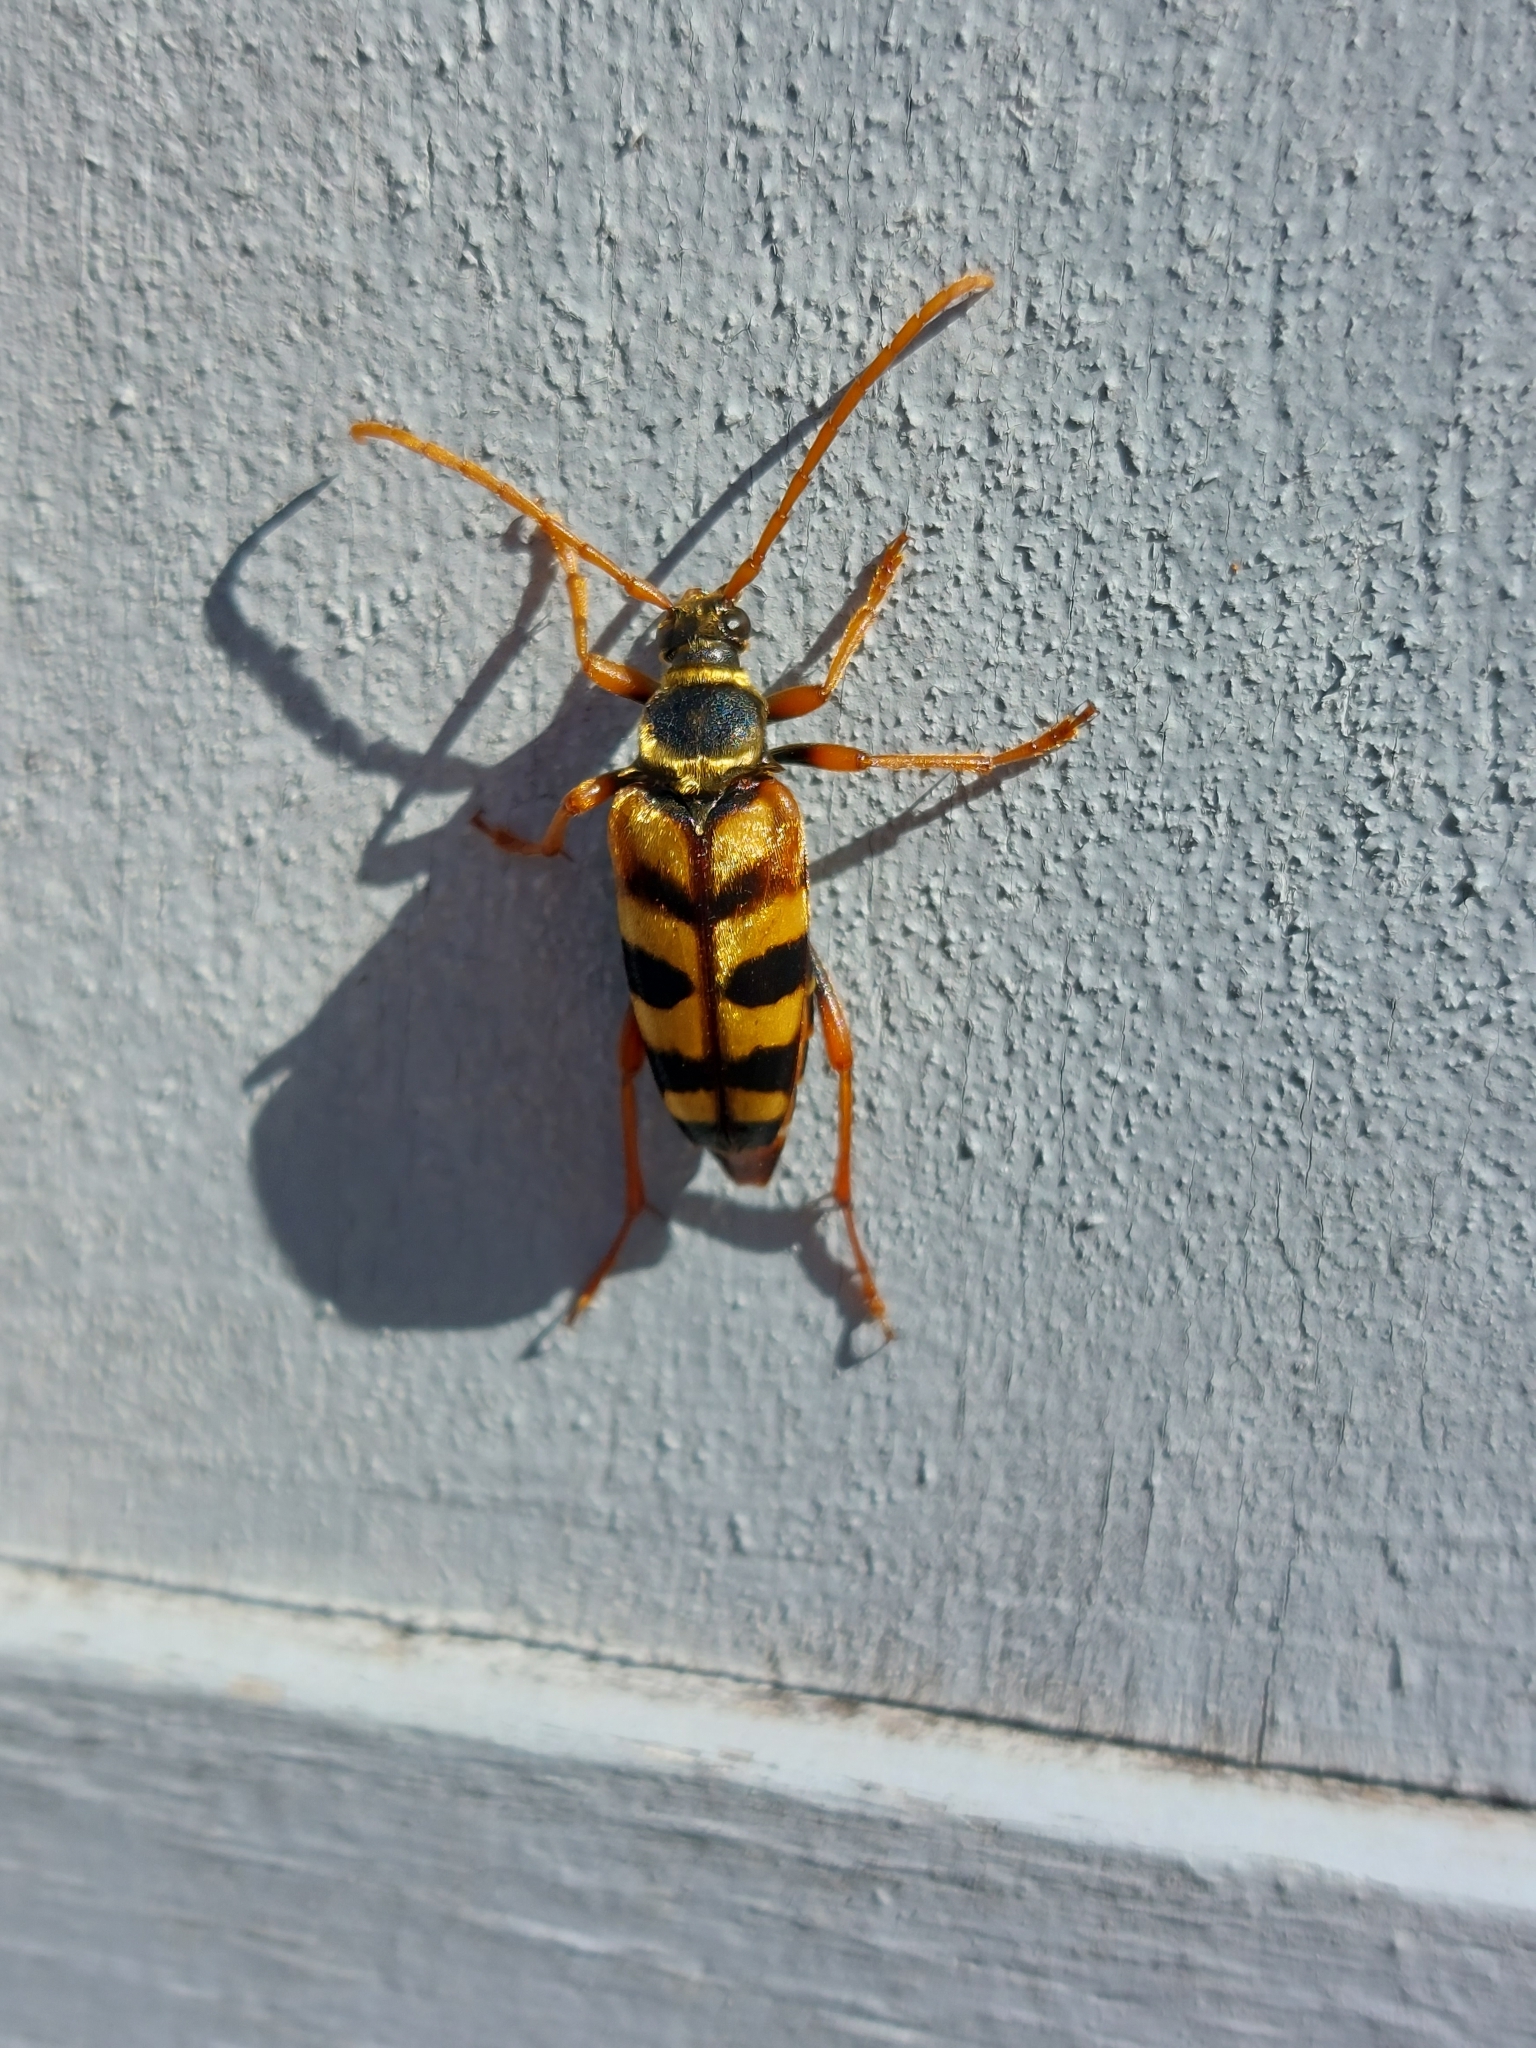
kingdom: Animalia
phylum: Arthropoda
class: Insecta
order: Coleoptera
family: Cerambycidae
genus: Leptura
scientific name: Leptura aurulenta
